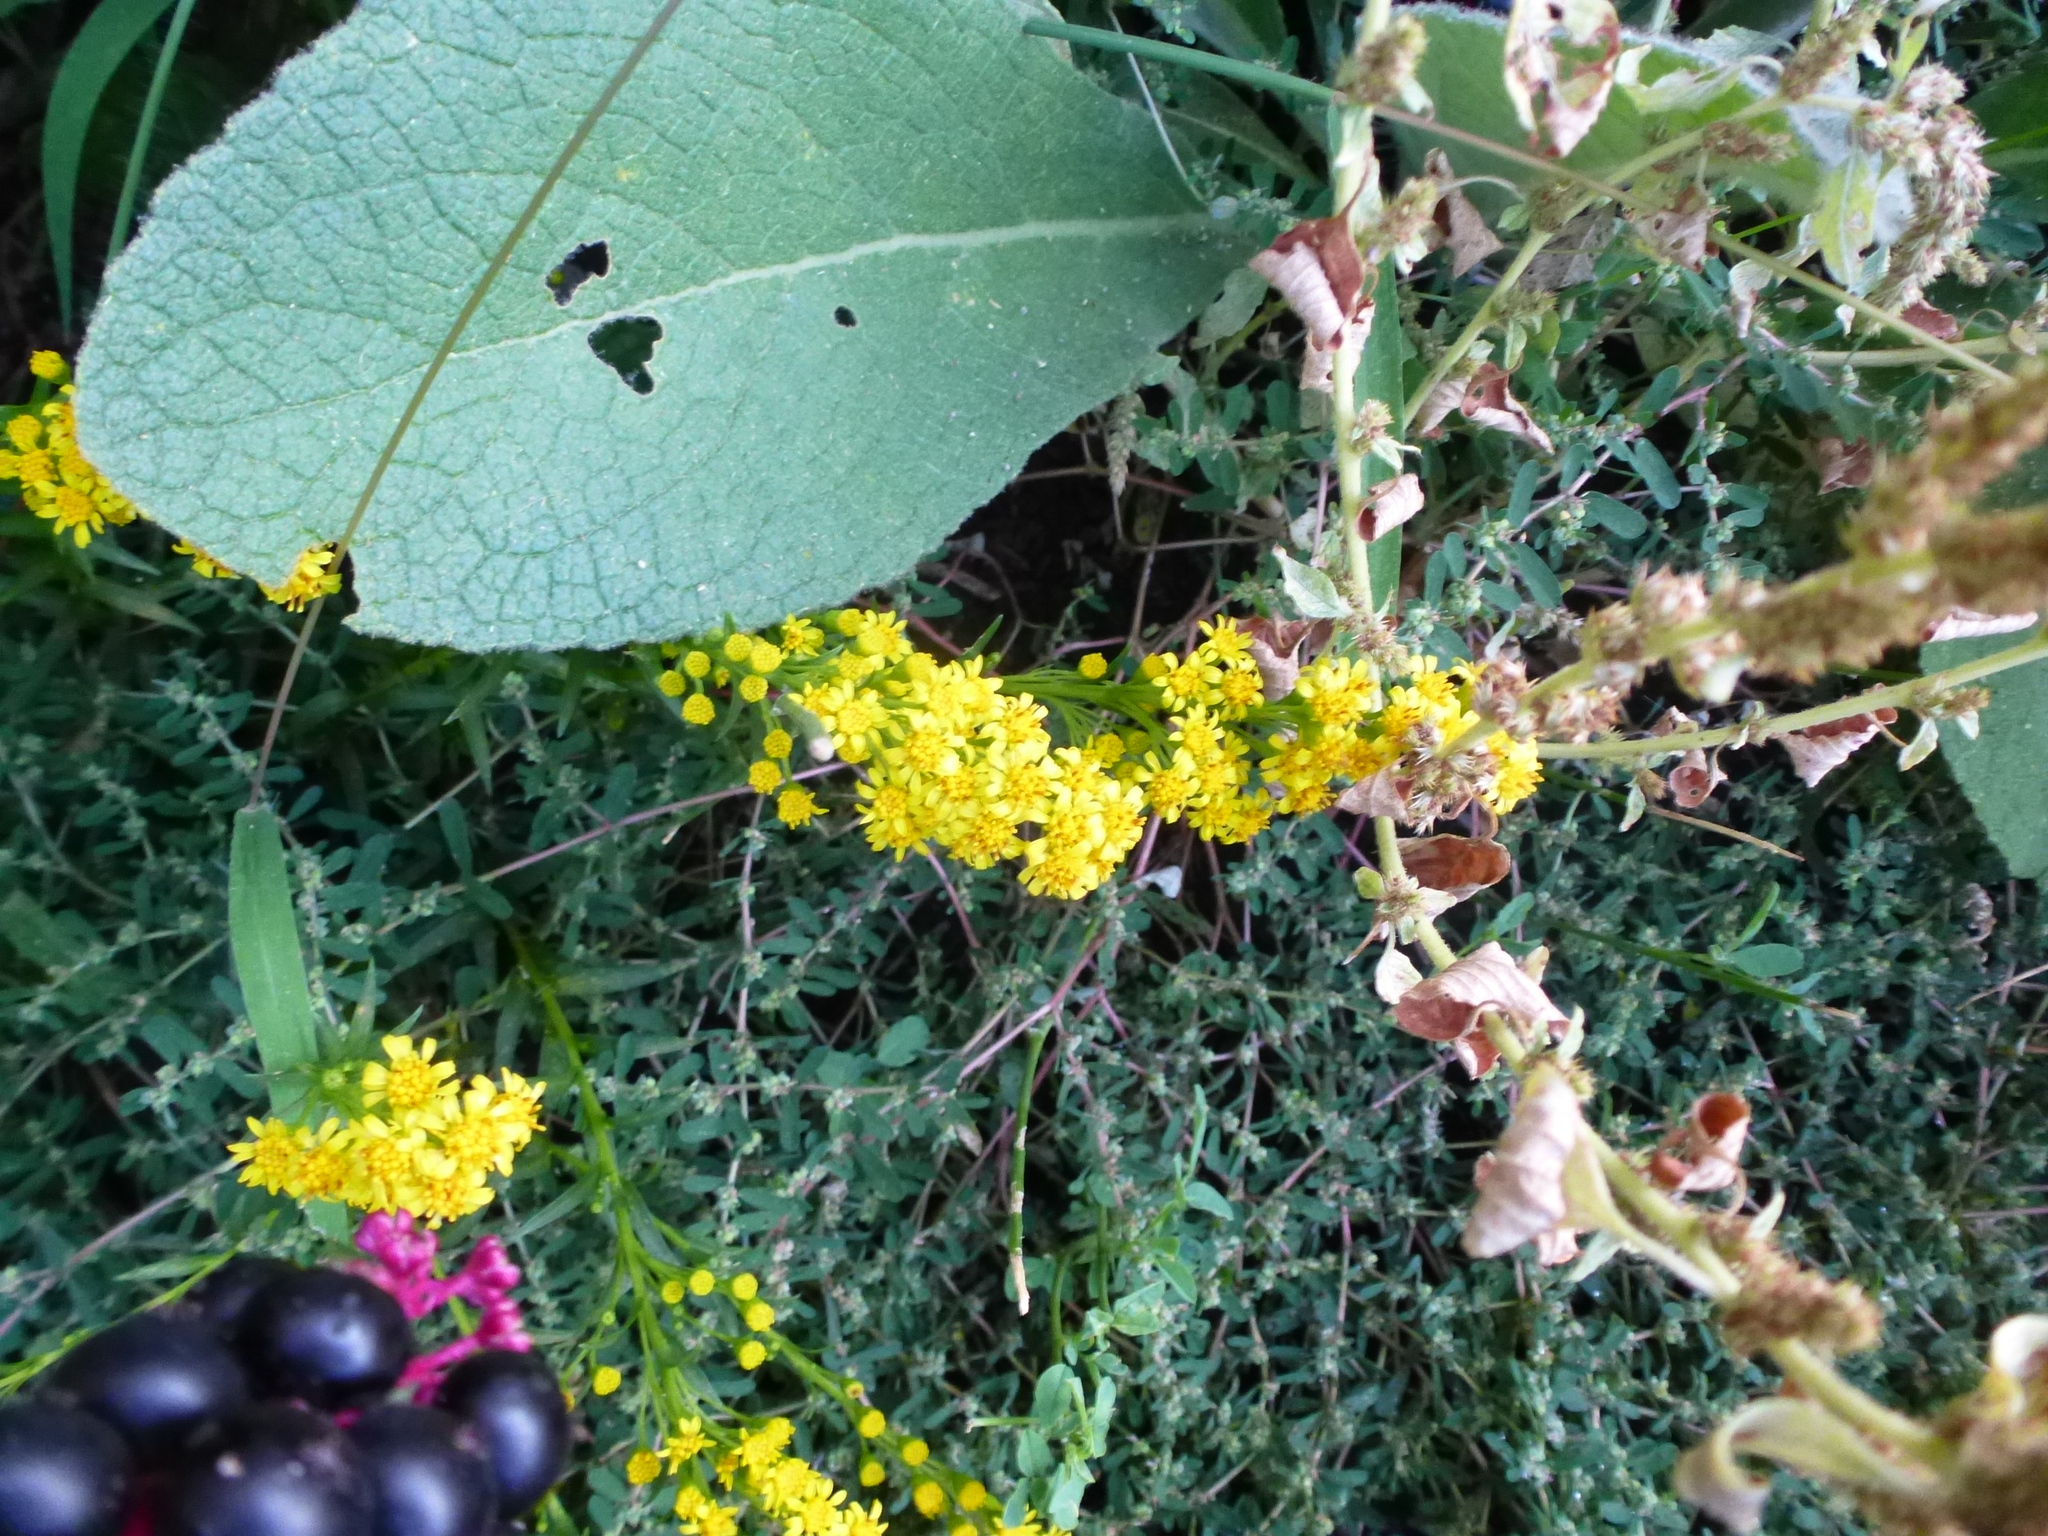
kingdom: Plantae
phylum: Tracheophyta
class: Magnoliopsida
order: Asterales
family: Asteraceae
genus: Solidago
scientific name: Solidago sempervirens
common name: Salt-marsh goldenrod
